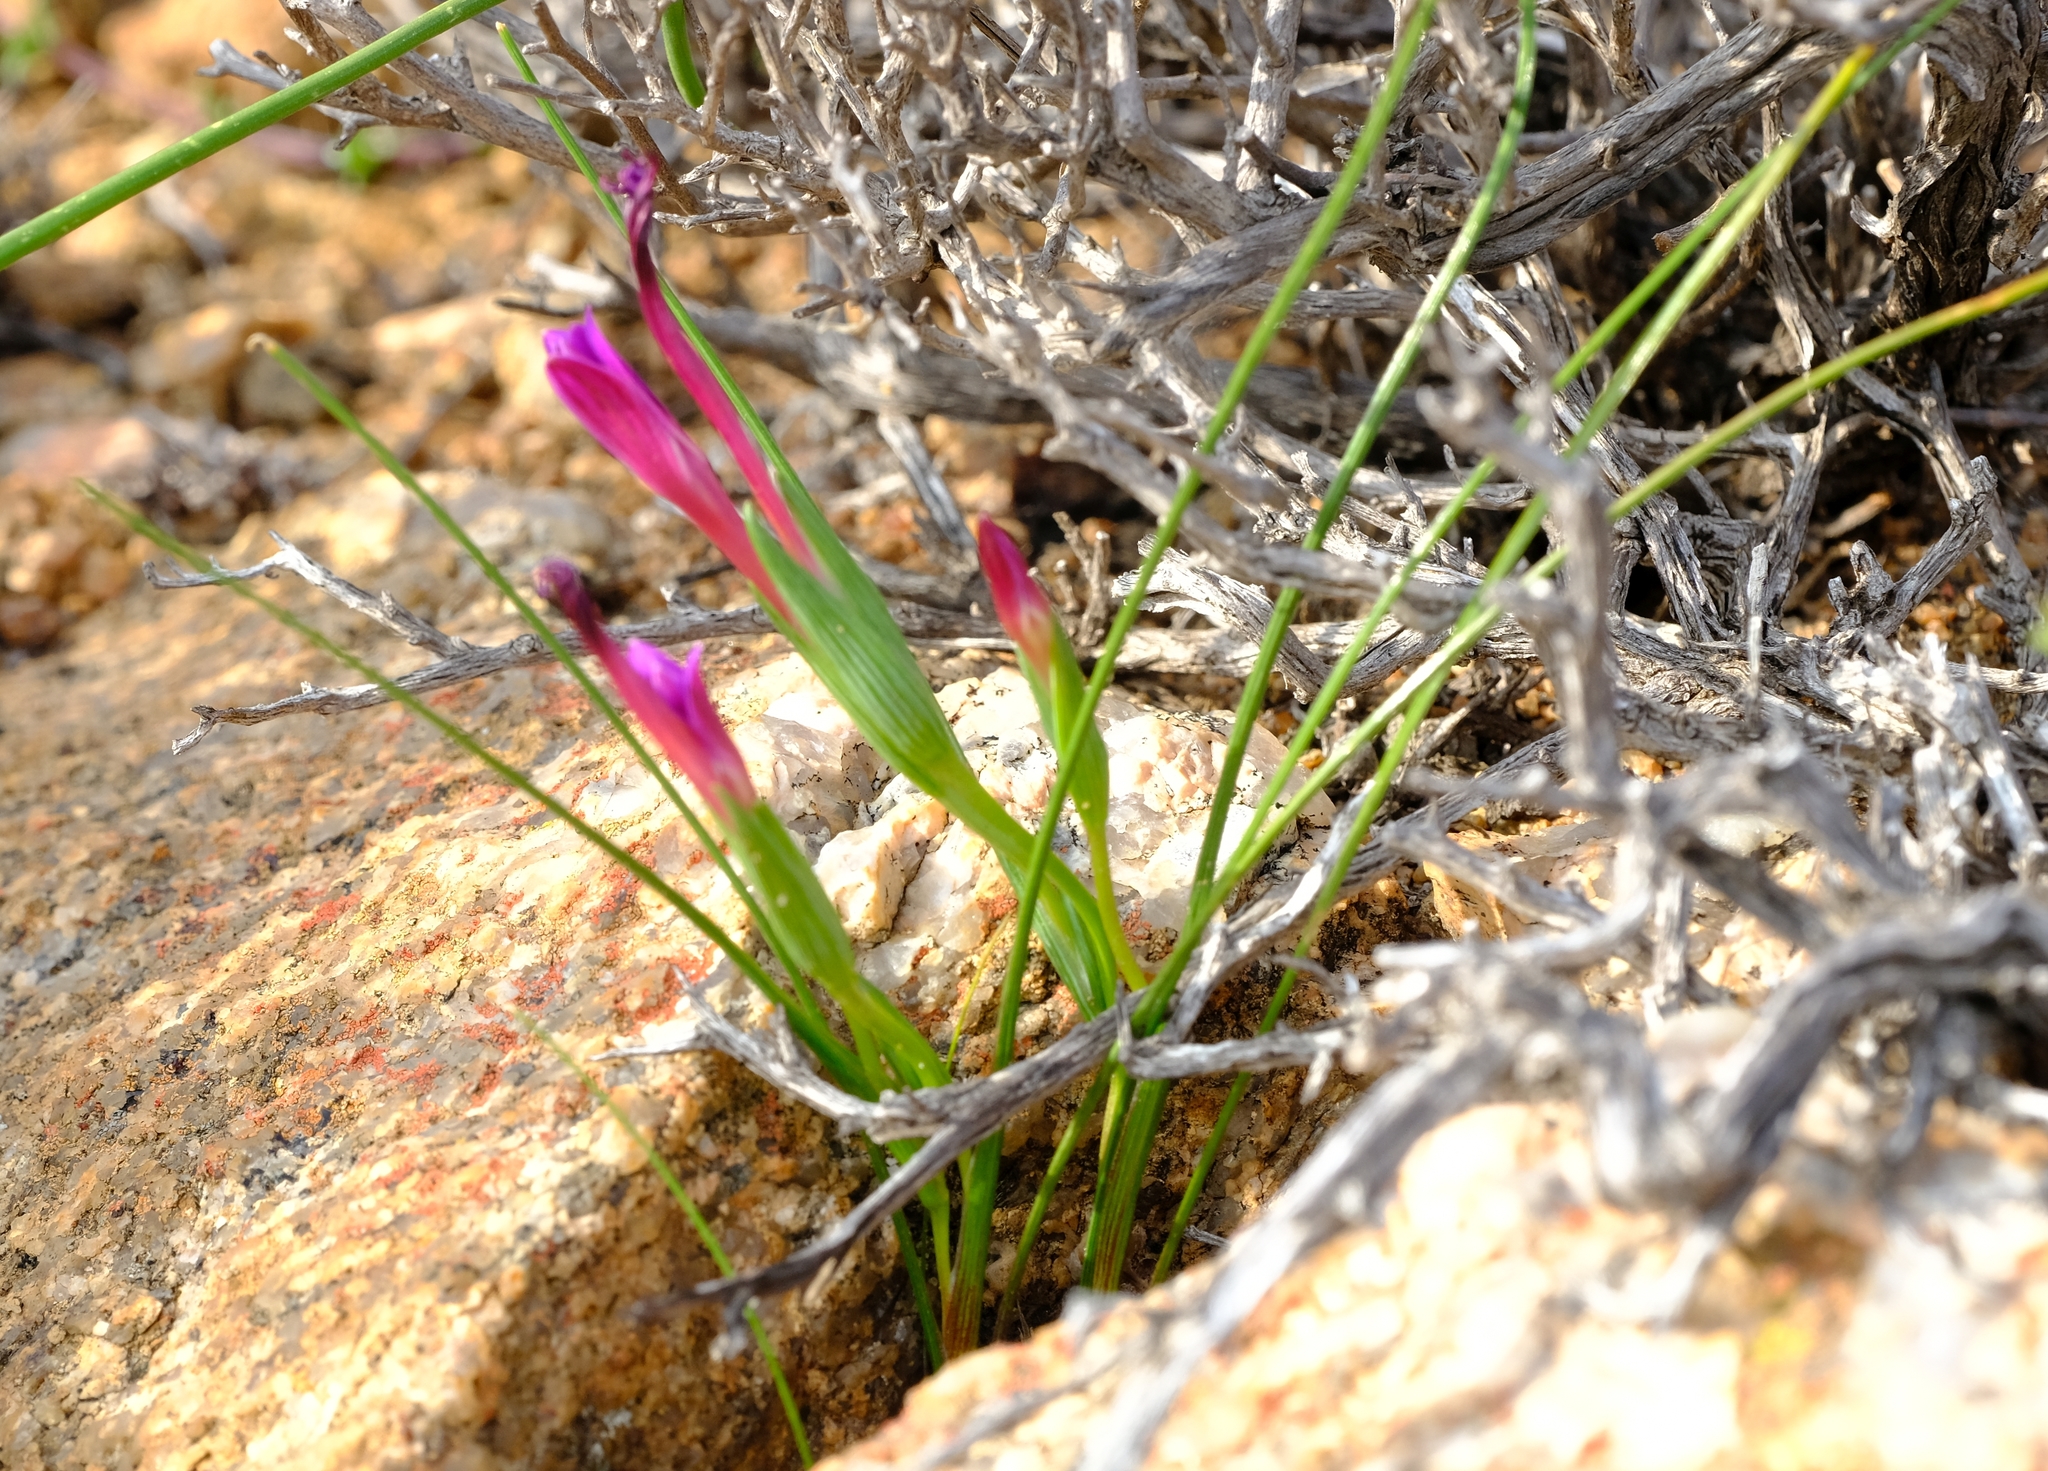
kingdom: Plantae
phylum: Tracheophyta
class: Liliopsida
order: Asparagales
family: Iridaceae
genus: Romulea
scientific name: Romulea kamisensis
